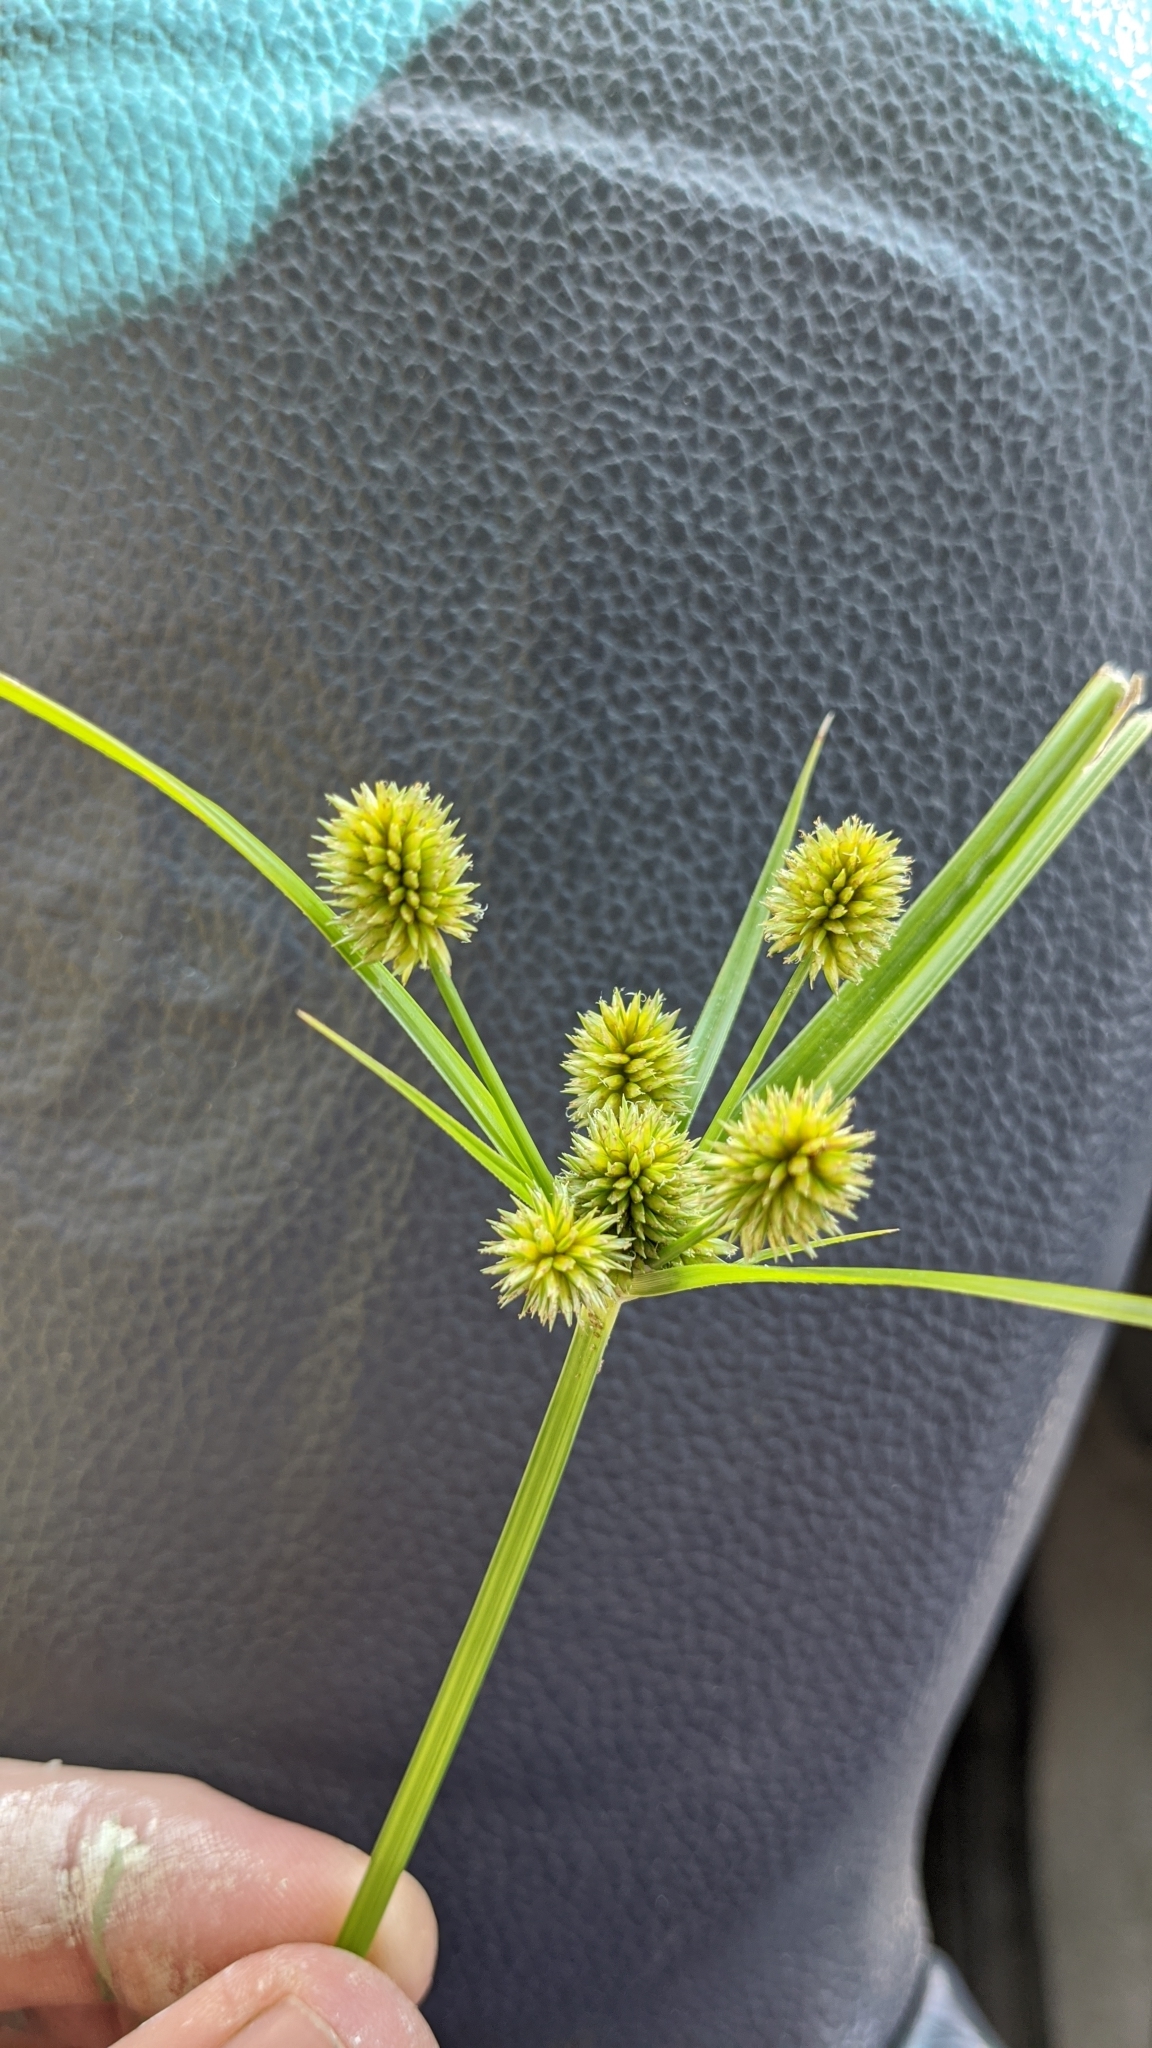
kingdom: Plantae
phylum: Tracheophyta
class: Liliopsida
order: Poales
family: Cyperaceae
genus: Cyperus
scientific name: Cyperus echinatus
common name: Teasel sedge
